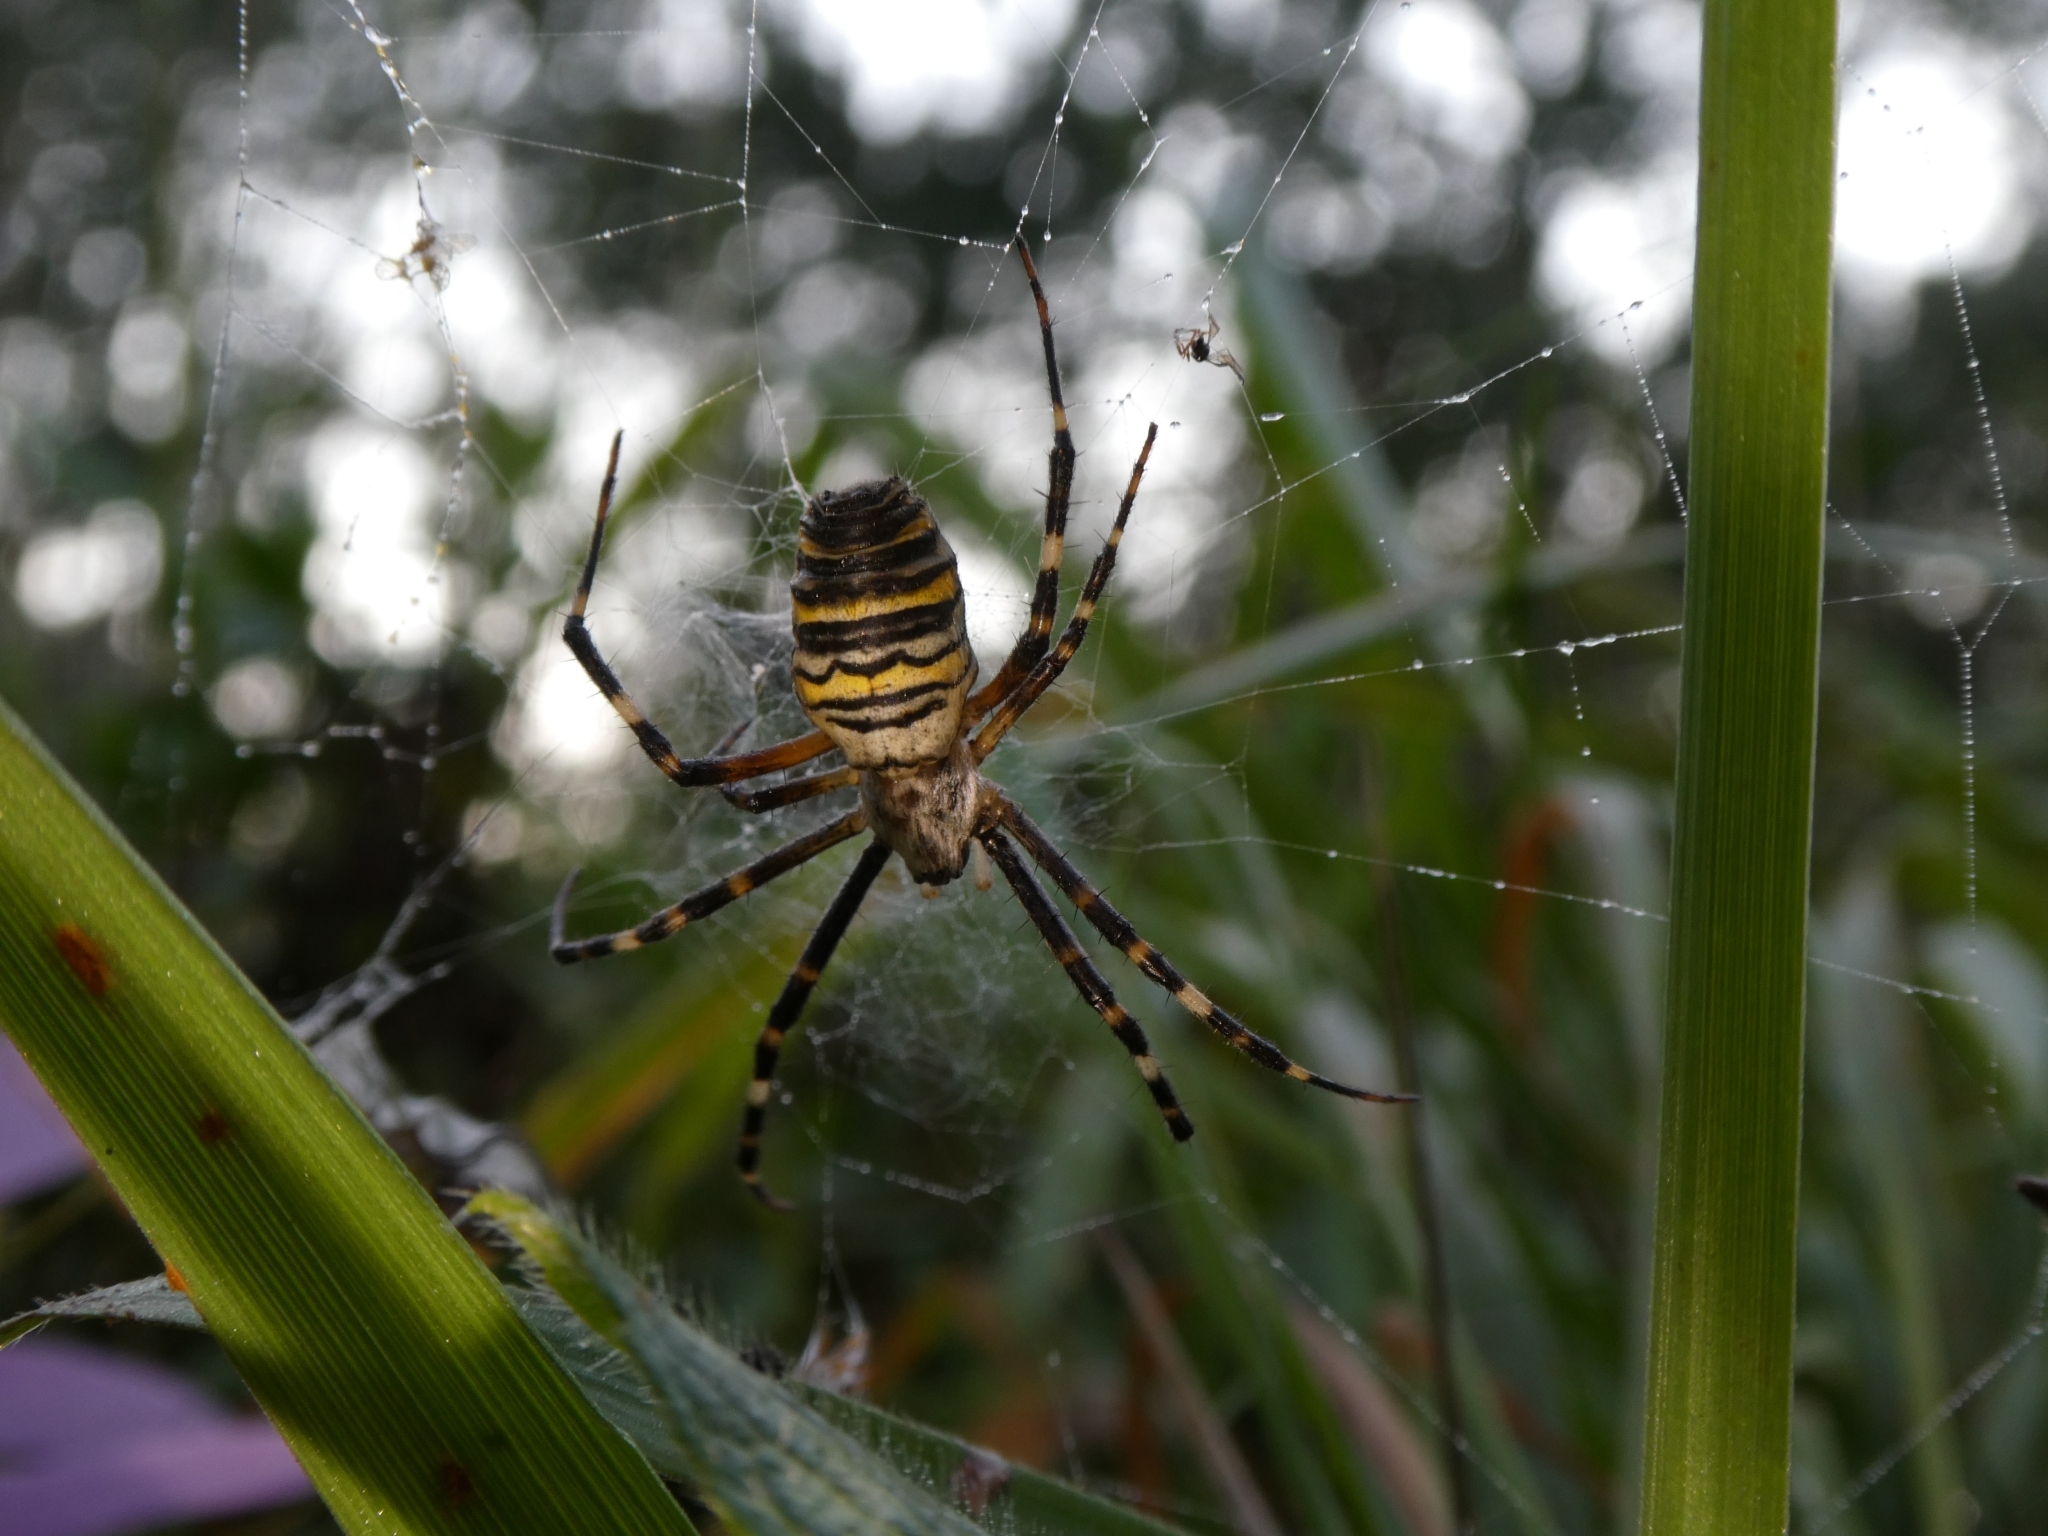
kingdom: Animalia
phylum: Arthropoda
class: Arachnida
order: Araneae
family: Araneidae
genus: Argiope
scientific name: Argiope bruennichi
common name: Wasp spider
